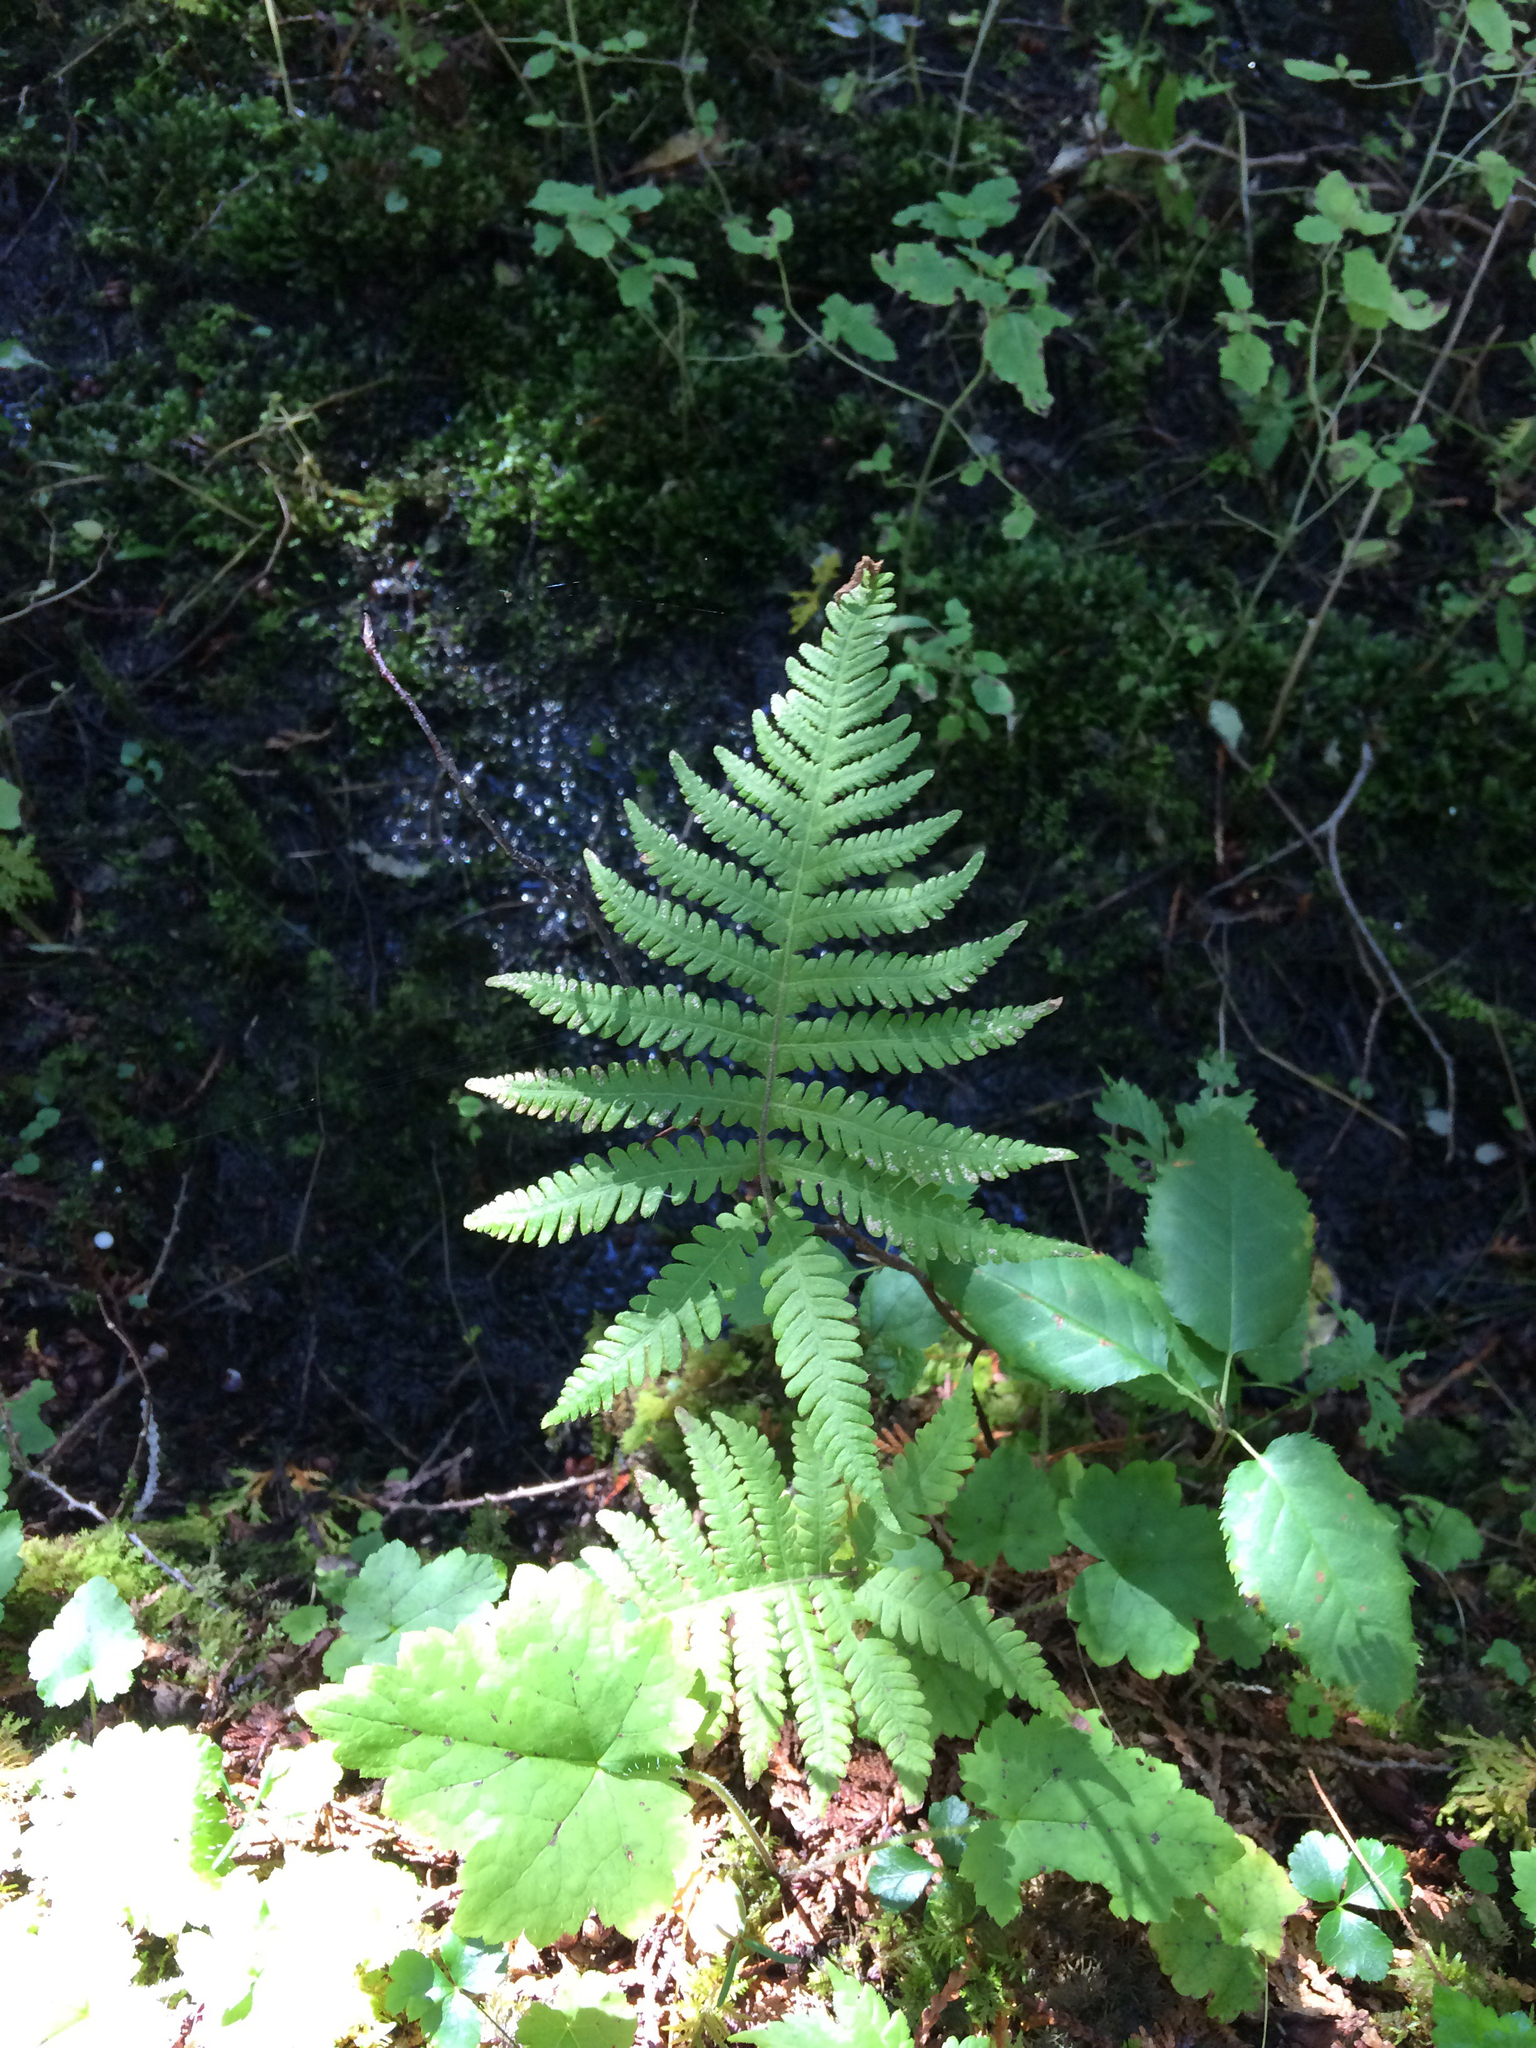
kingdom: Plantae
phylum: Tracheophyta
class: Polypodiopsida
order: Polypodiales
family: Thelypteridaceae
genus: Phegopteris
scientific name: Phegopteris connectilis
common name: Beech fern
